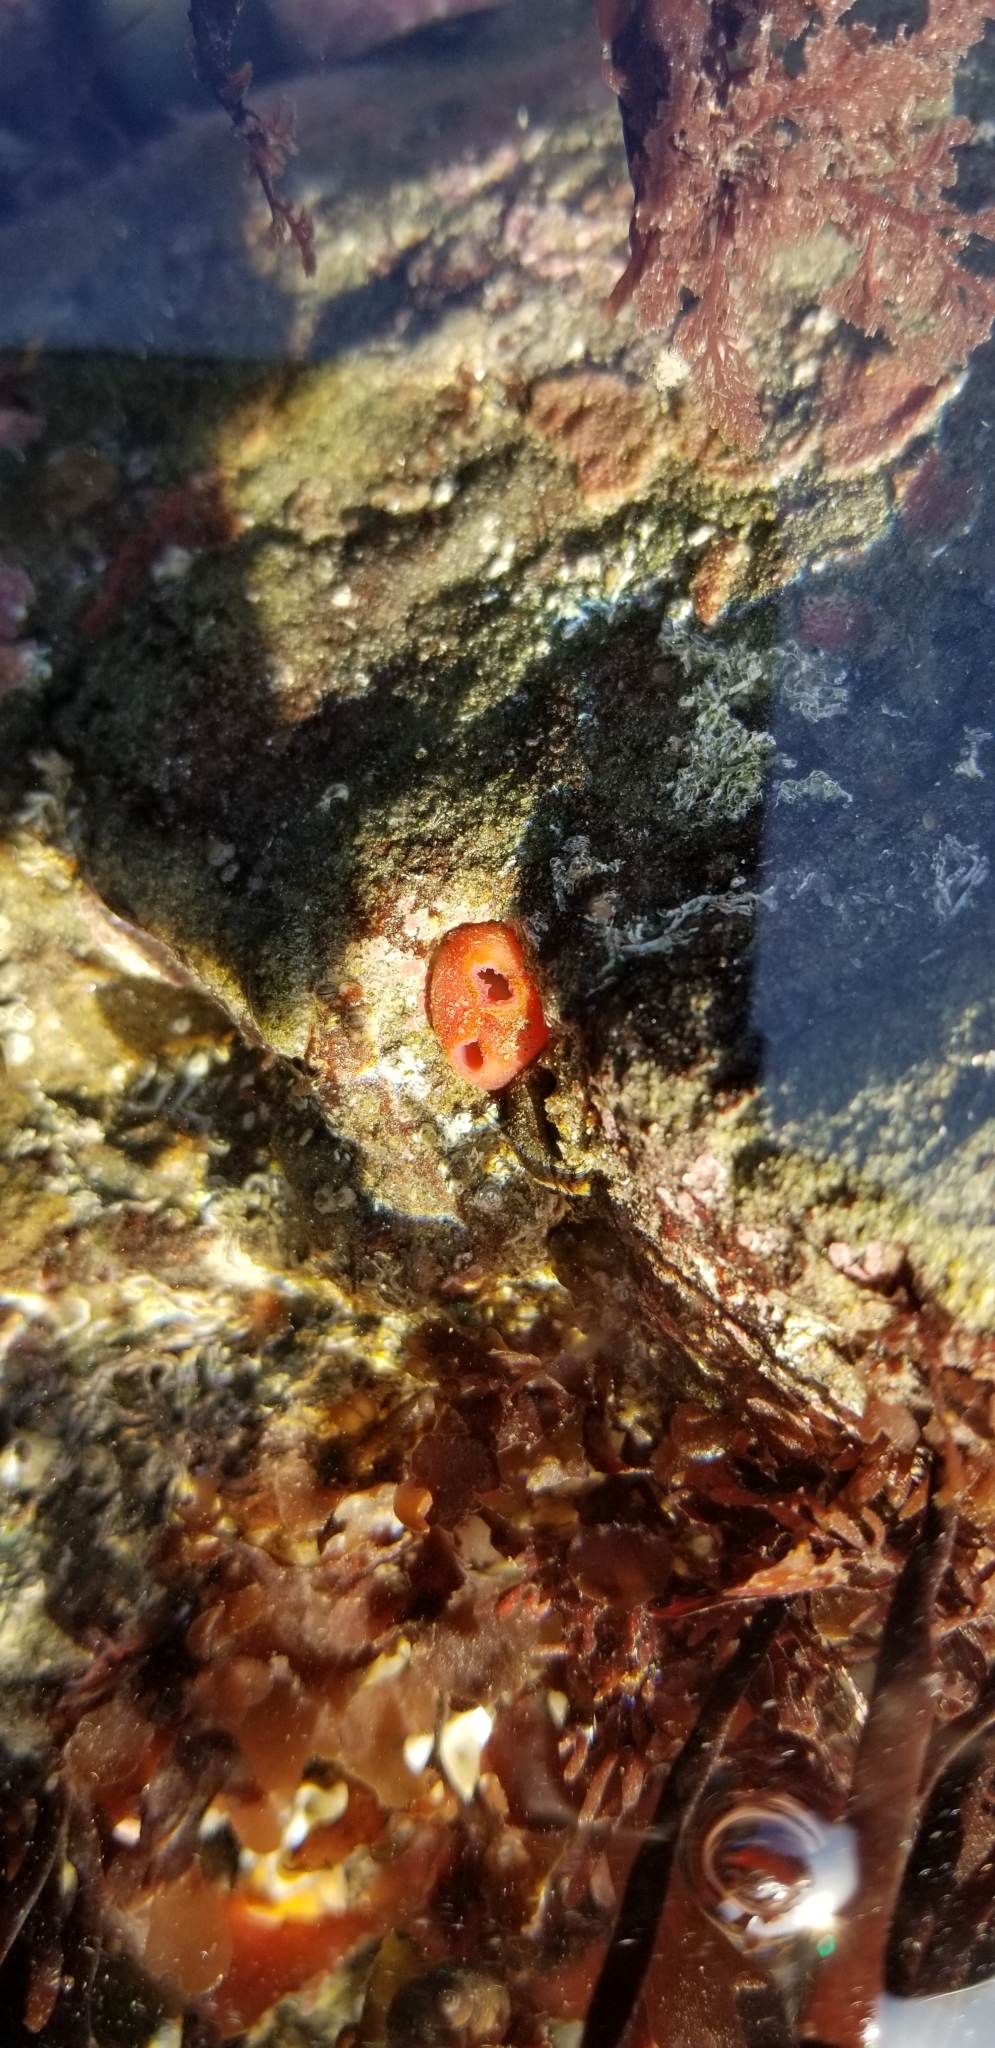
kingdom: Animalia
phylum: Mollusca
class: Bivalvia
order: Adapedonta
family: Hiatellidae
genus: Hiatella
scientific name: Hiatella arctica
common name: Arctic hiatella
